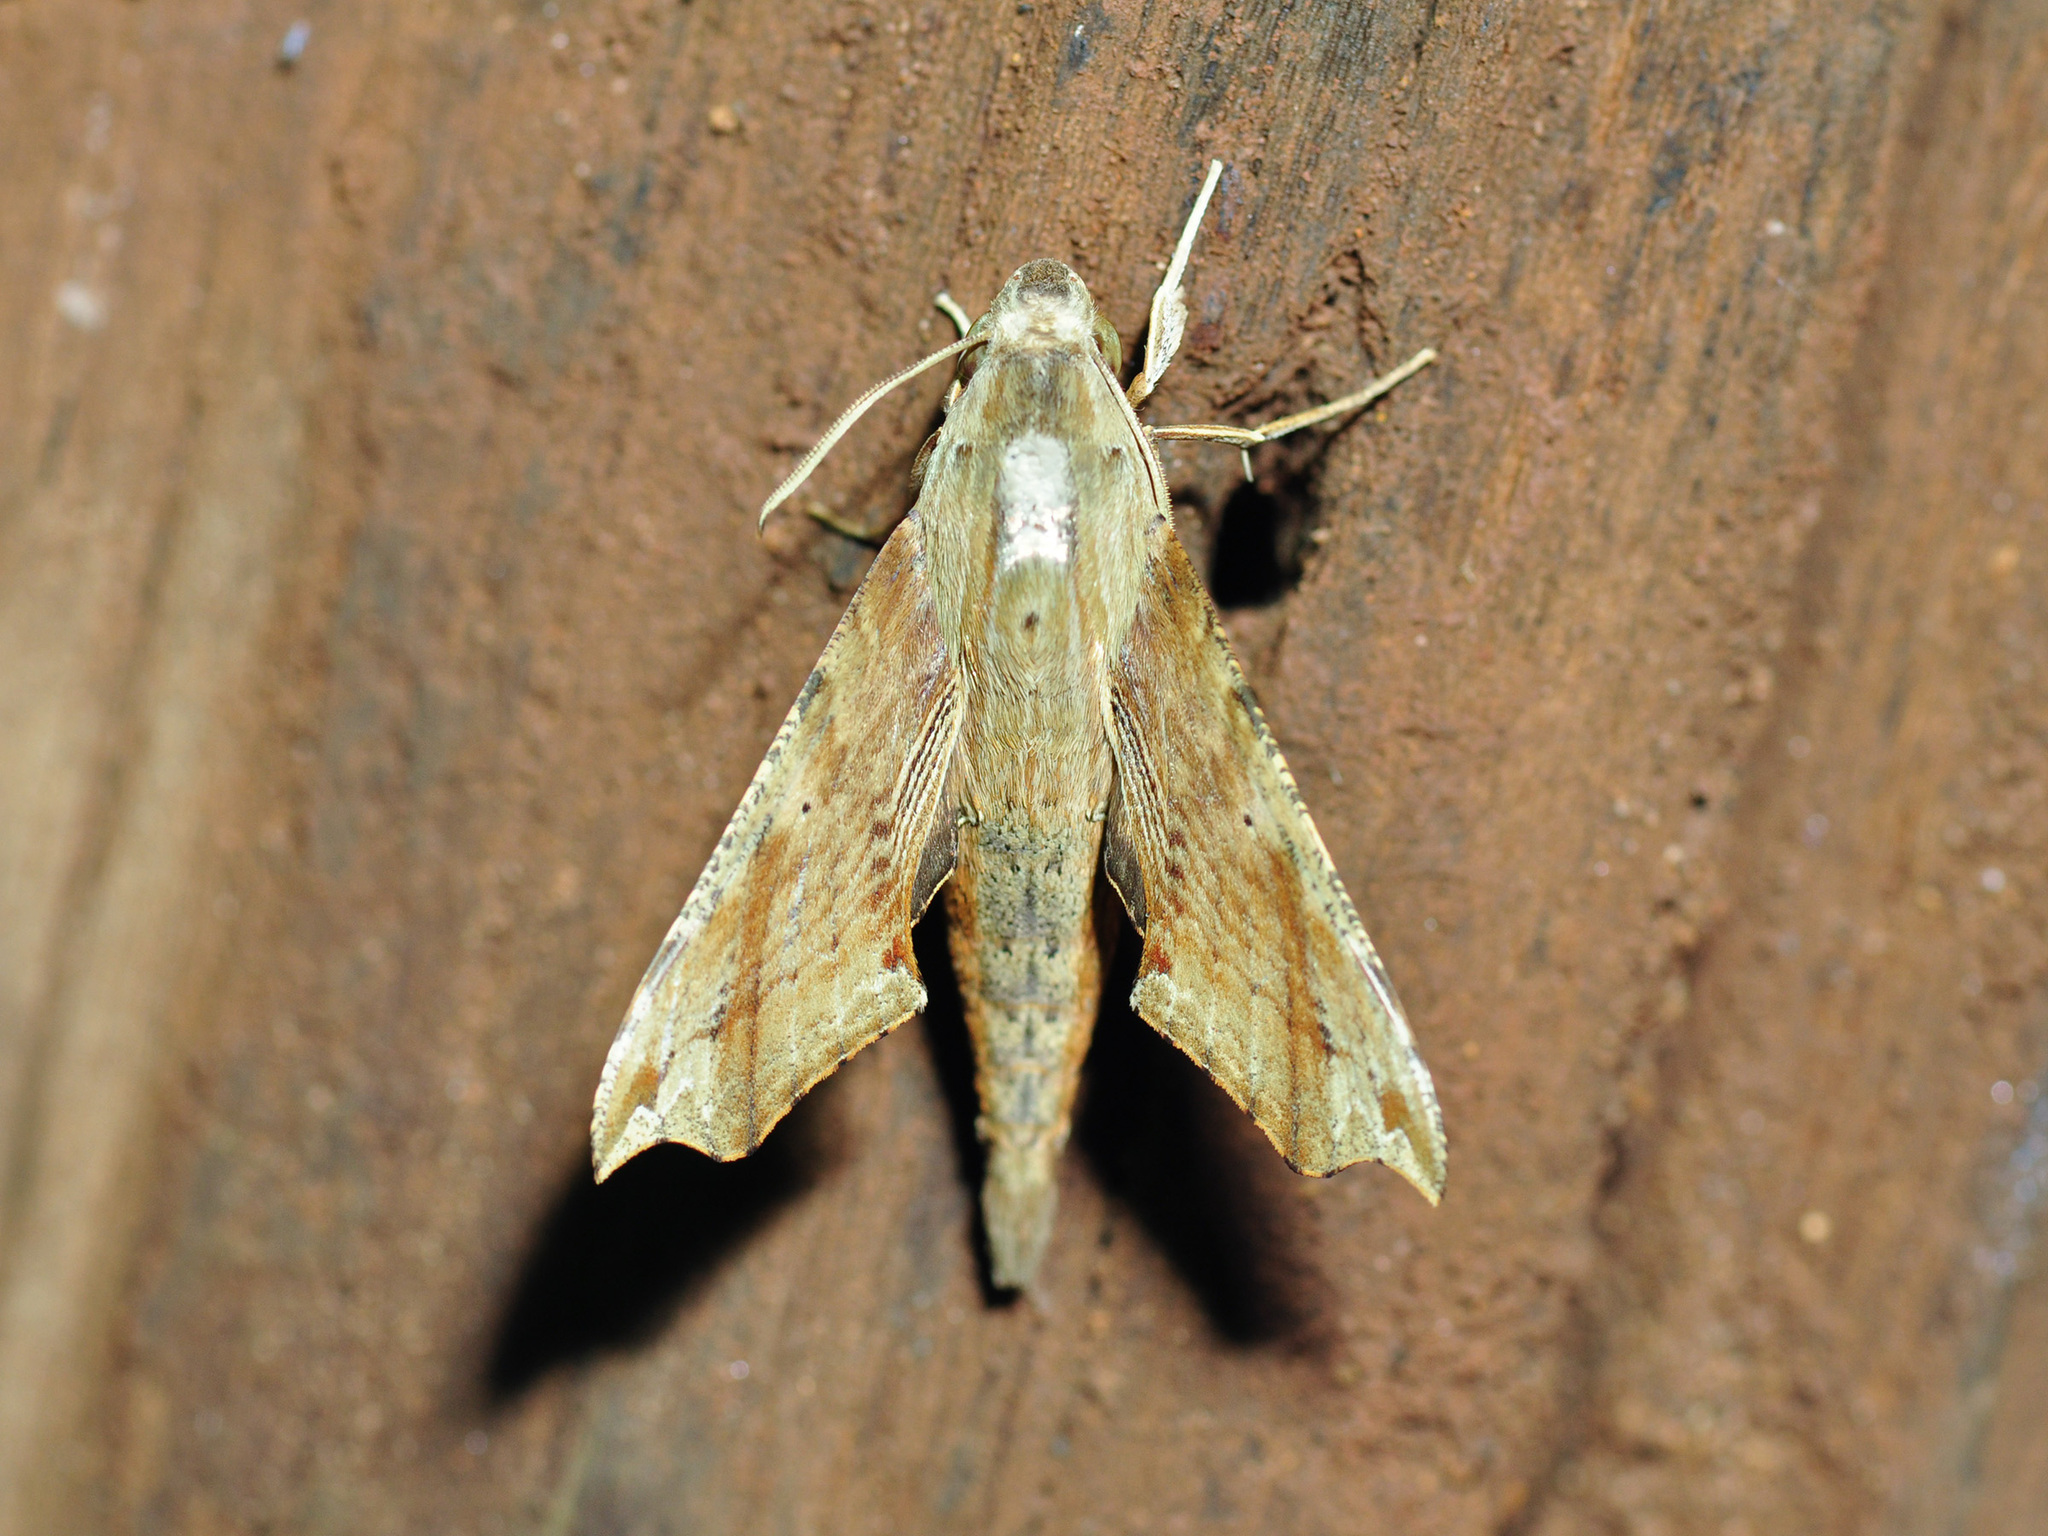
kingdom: Animalia
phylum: Arthropoda
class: Insecta
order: Lepidoptera
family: Sphingidae
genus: Eupanacra
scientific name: Eupanacra malayana
